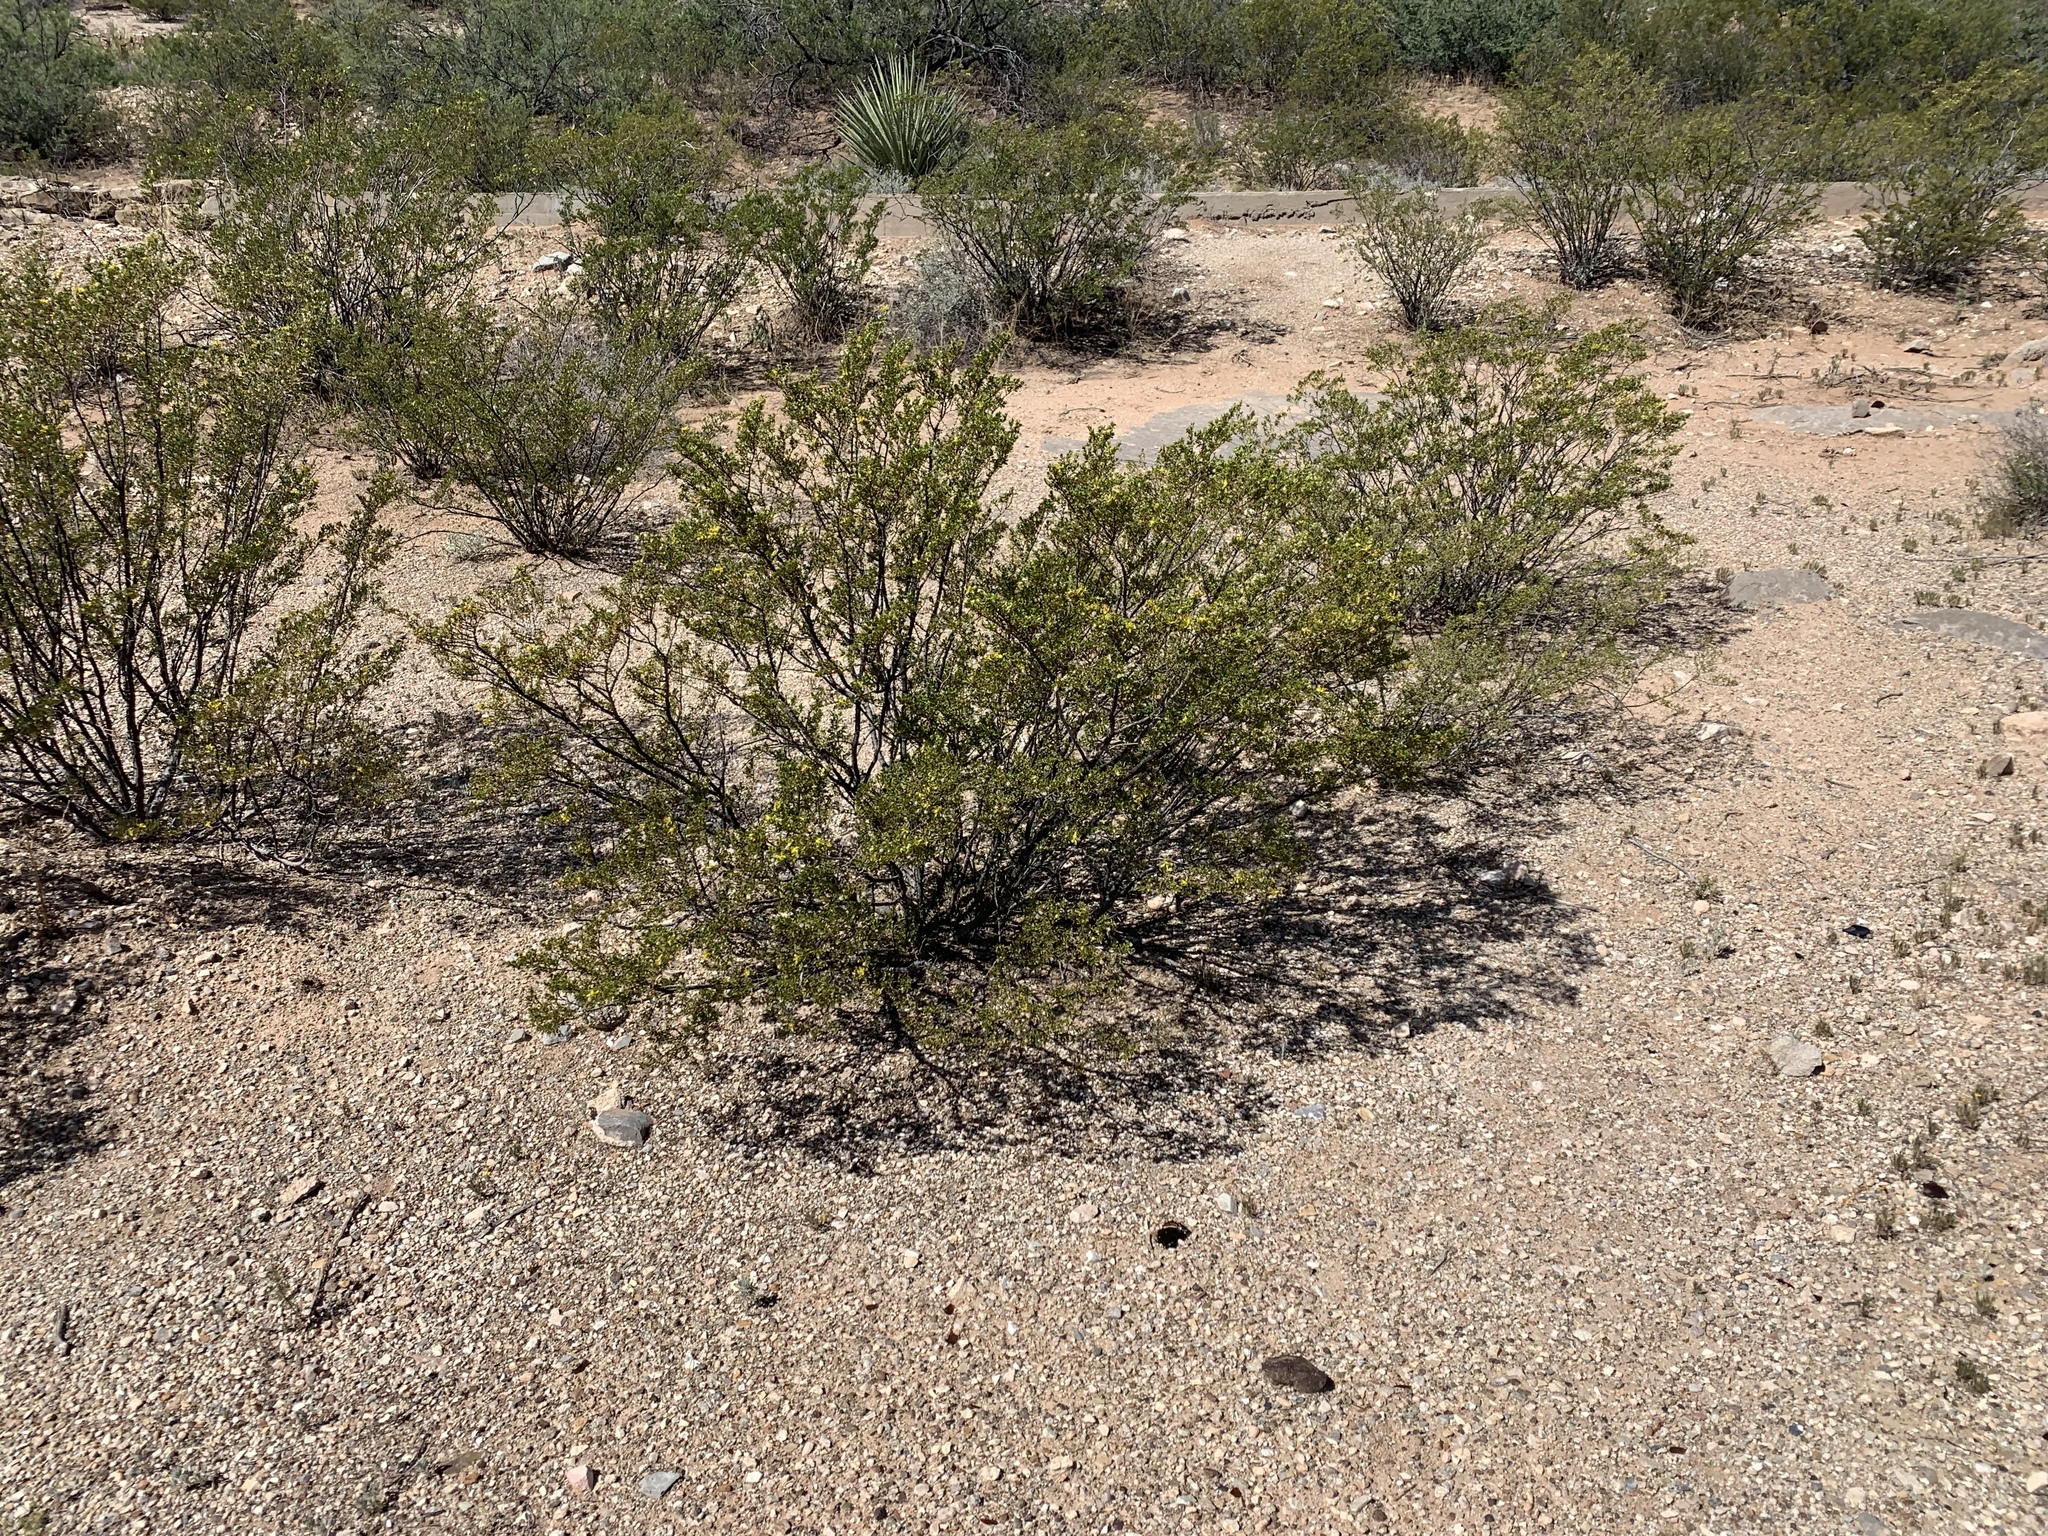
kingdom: Plantae
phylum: Tracheophyta
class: Magnoliopsida
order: Zygophyllales
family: Zygophyllaceae
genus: Larrea
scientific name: Larrea tridentata
